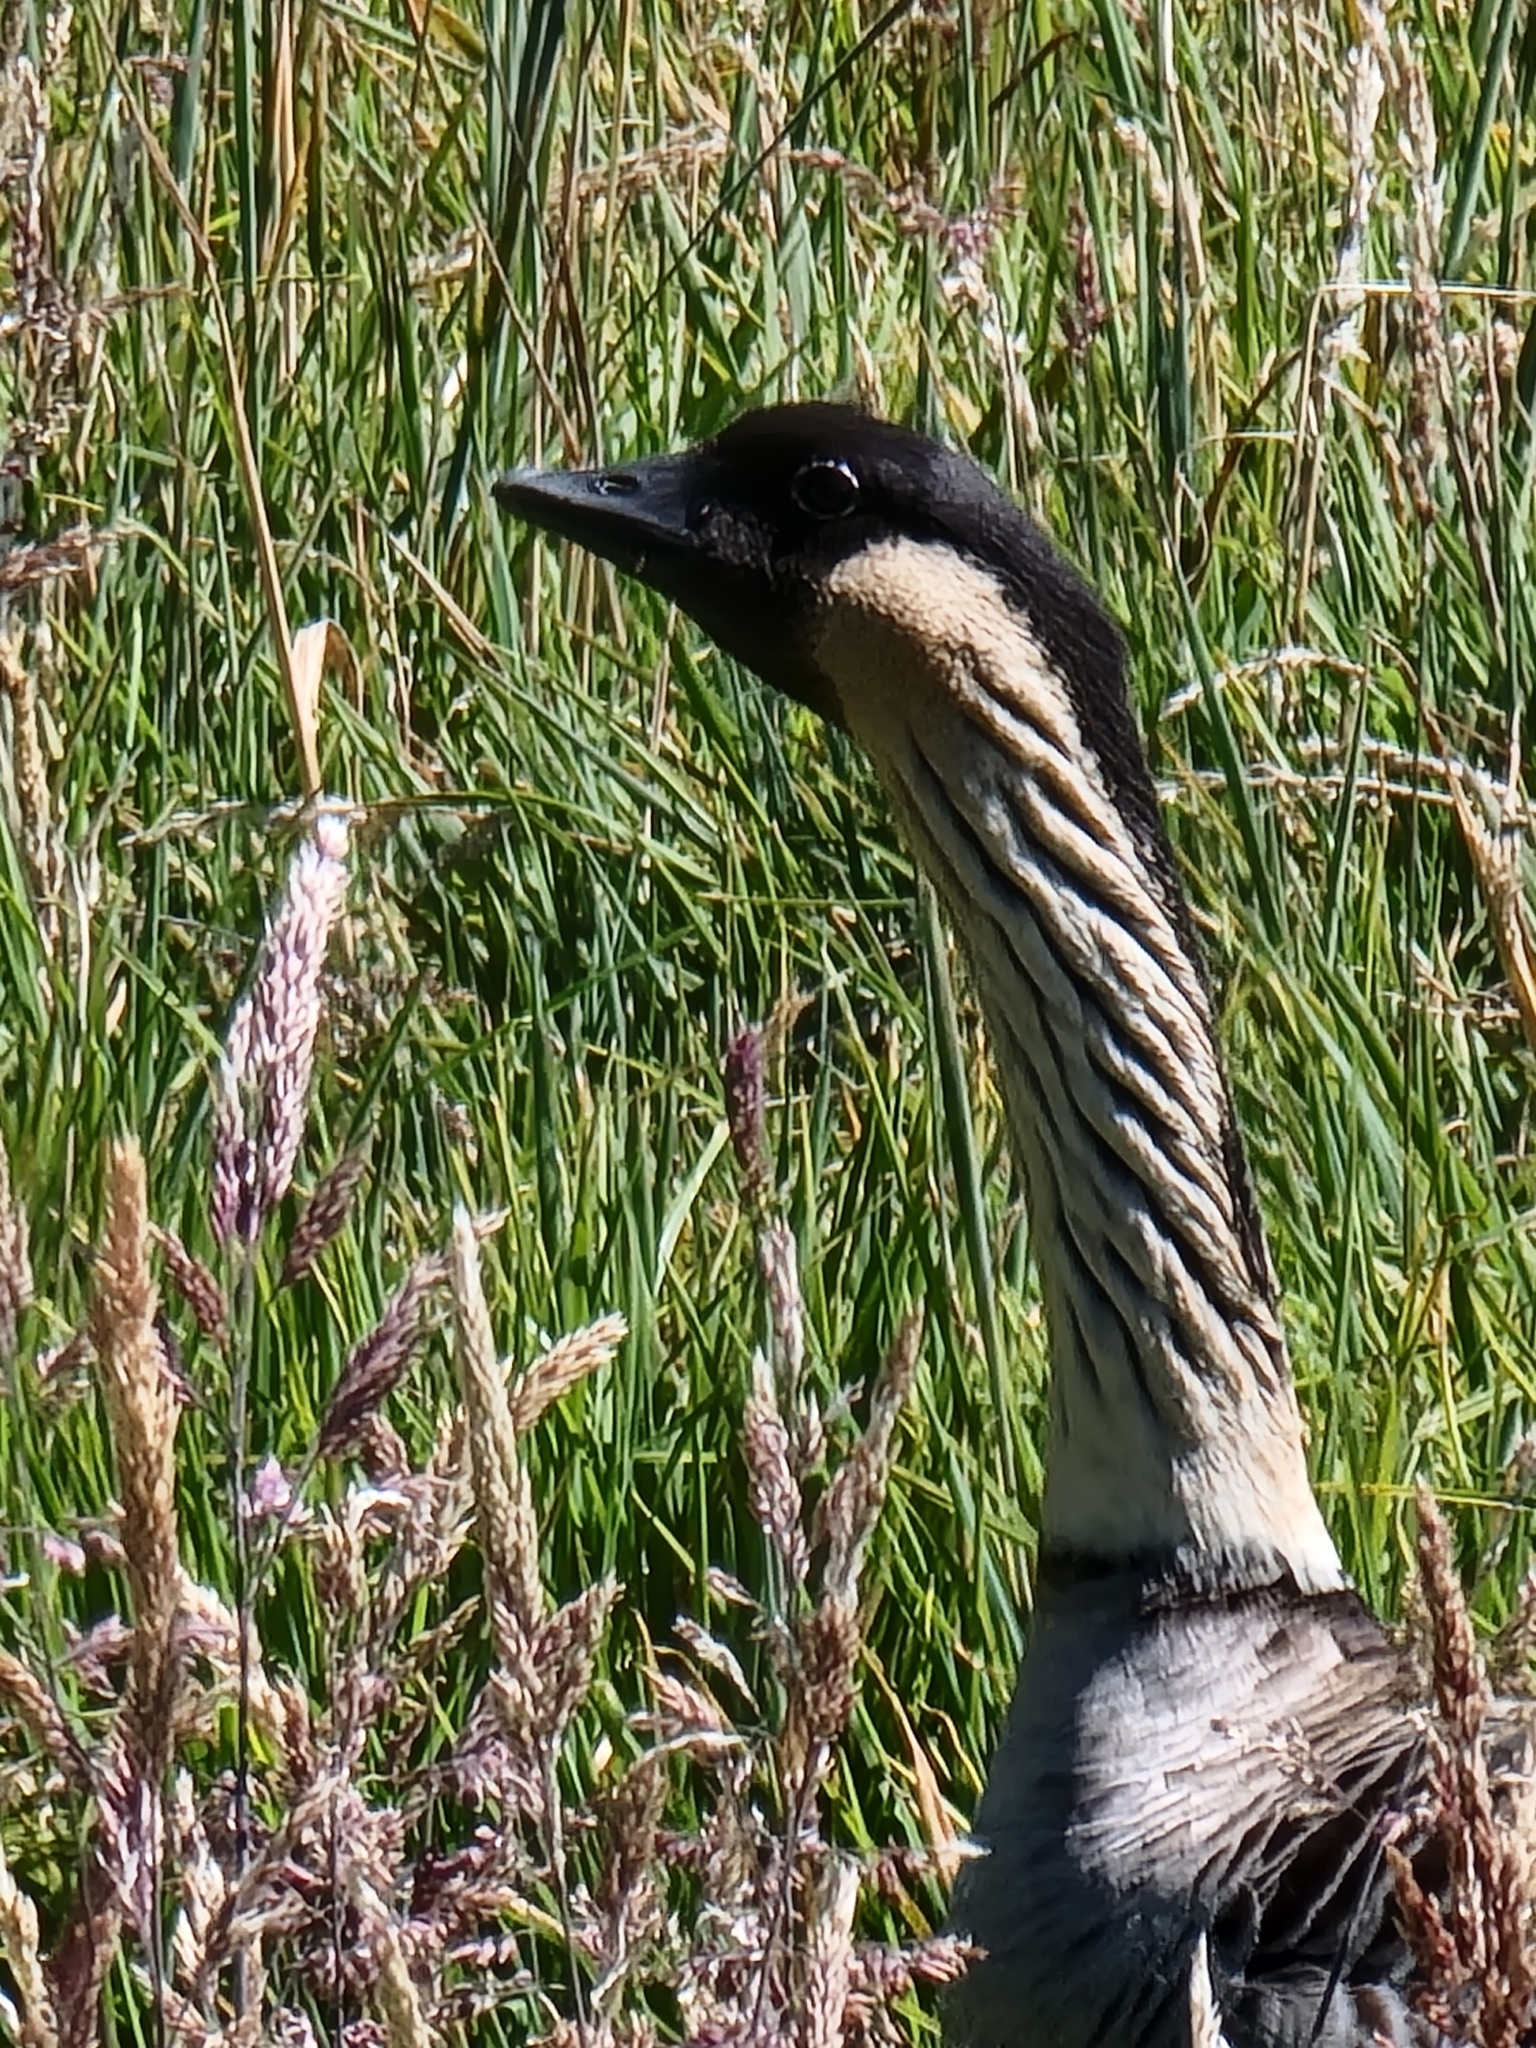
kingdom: Animalia
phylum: Chordata
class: Aves
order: Anseriformes
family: Anatidae
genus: Branta
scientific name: Branta sandvicensis
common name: Nene
